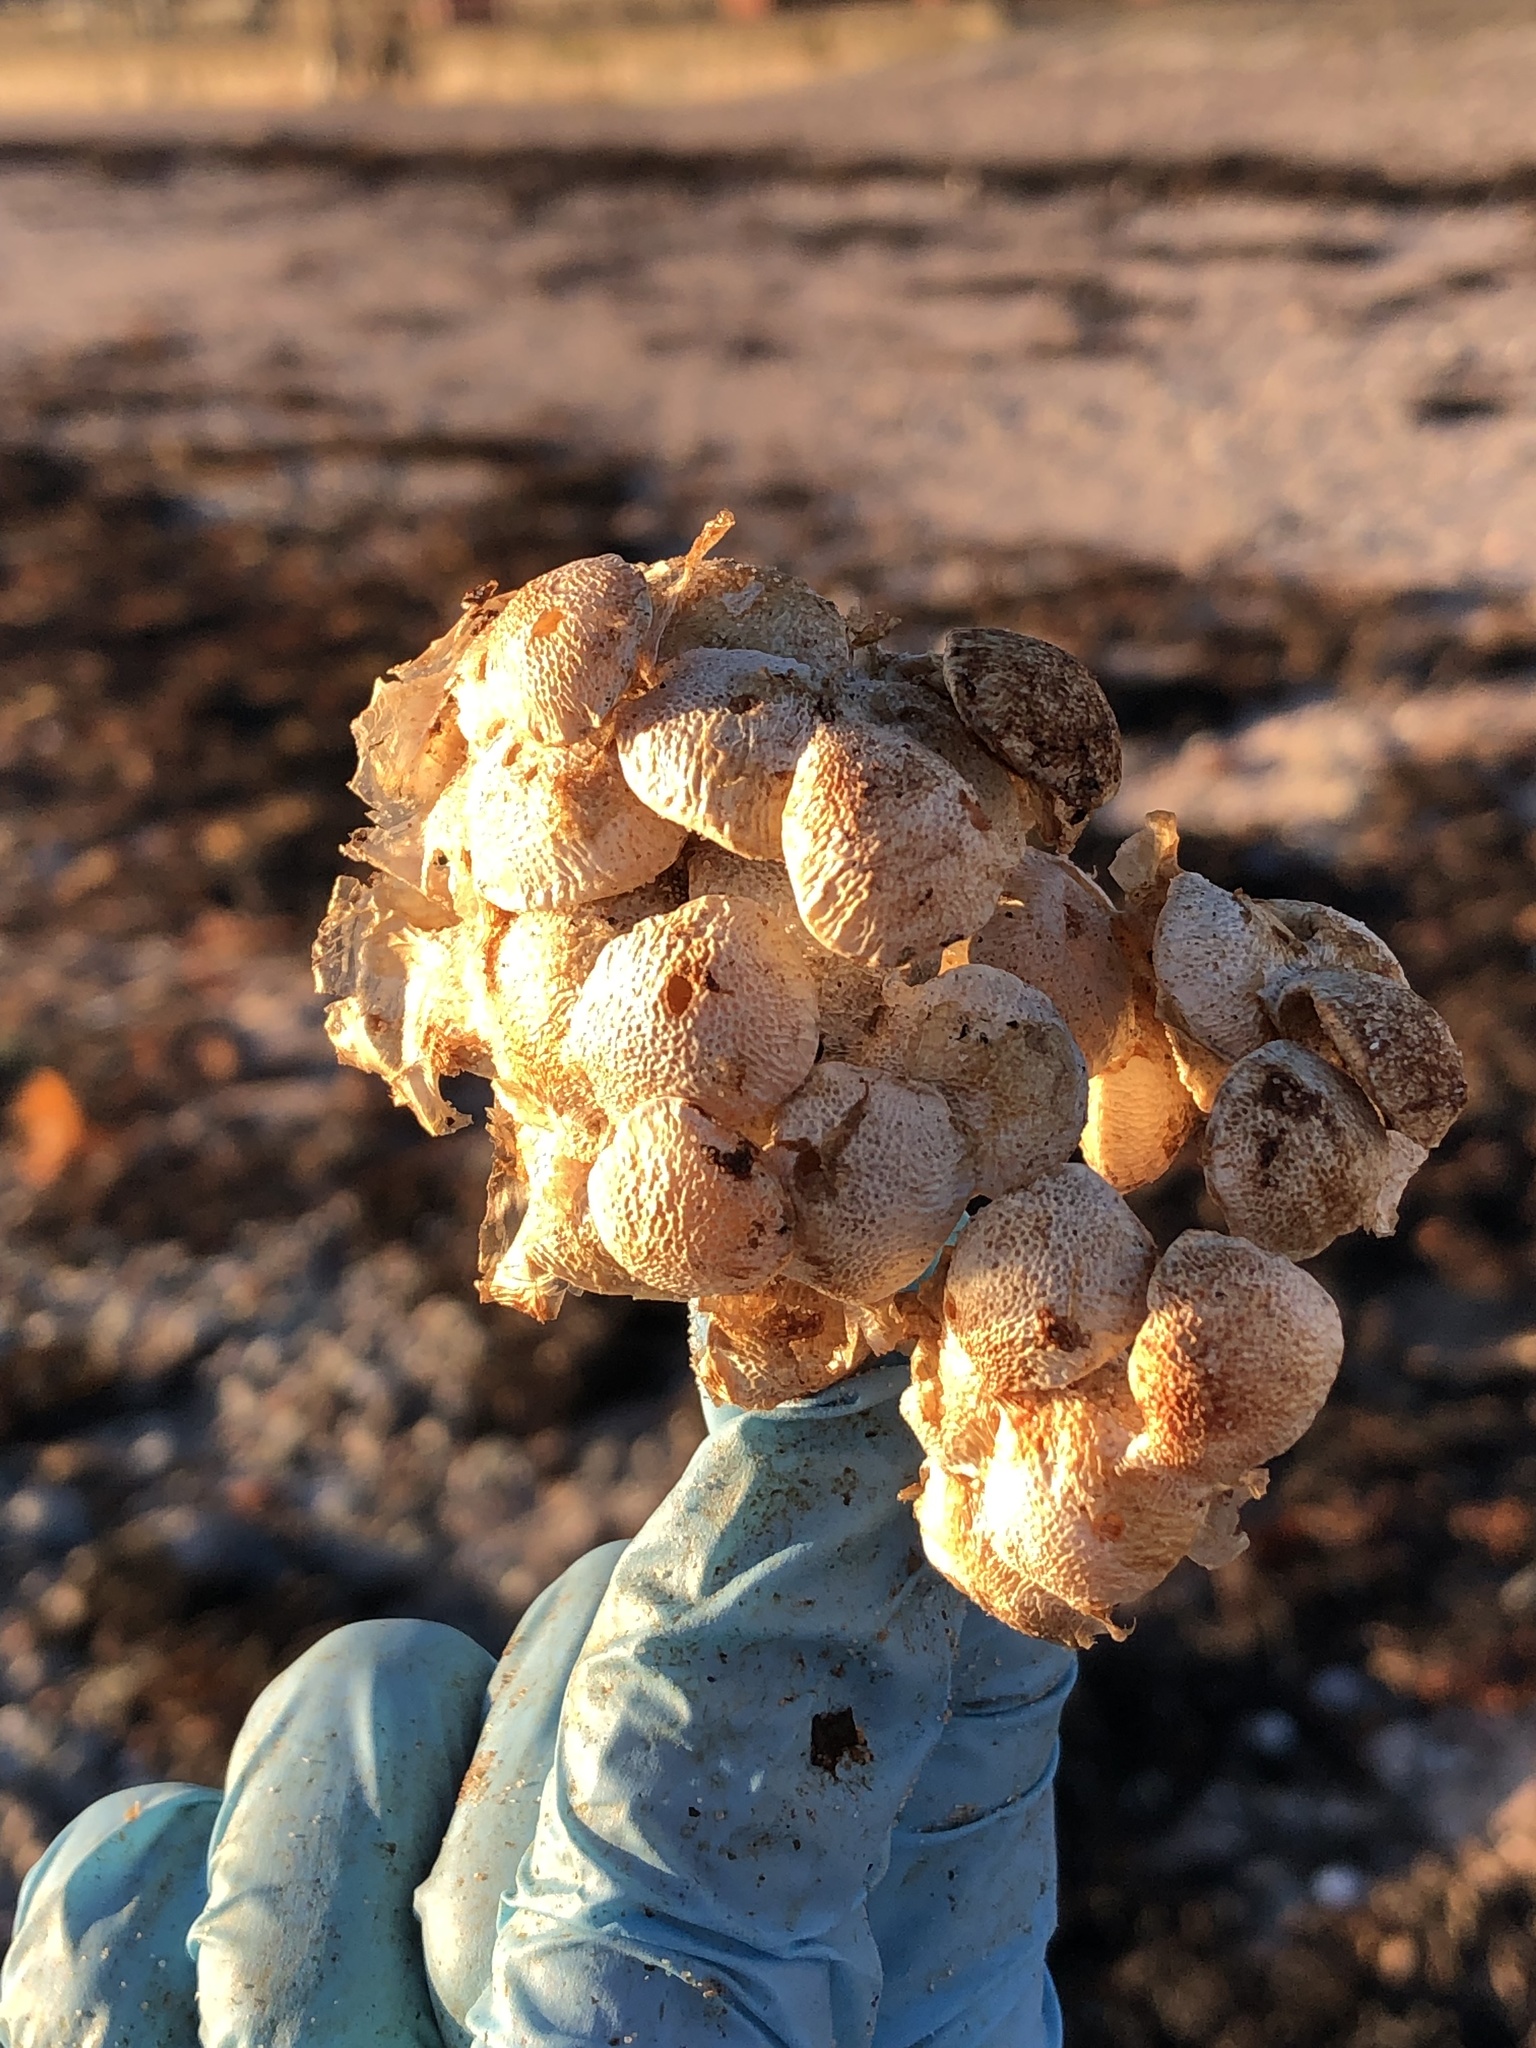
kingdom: Animalia
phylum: Mollusca
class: Gastropoda
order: Neogastropoda
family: Buccinidae
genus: Buccinum
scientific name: Buccinum undatum
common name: Common whelk
